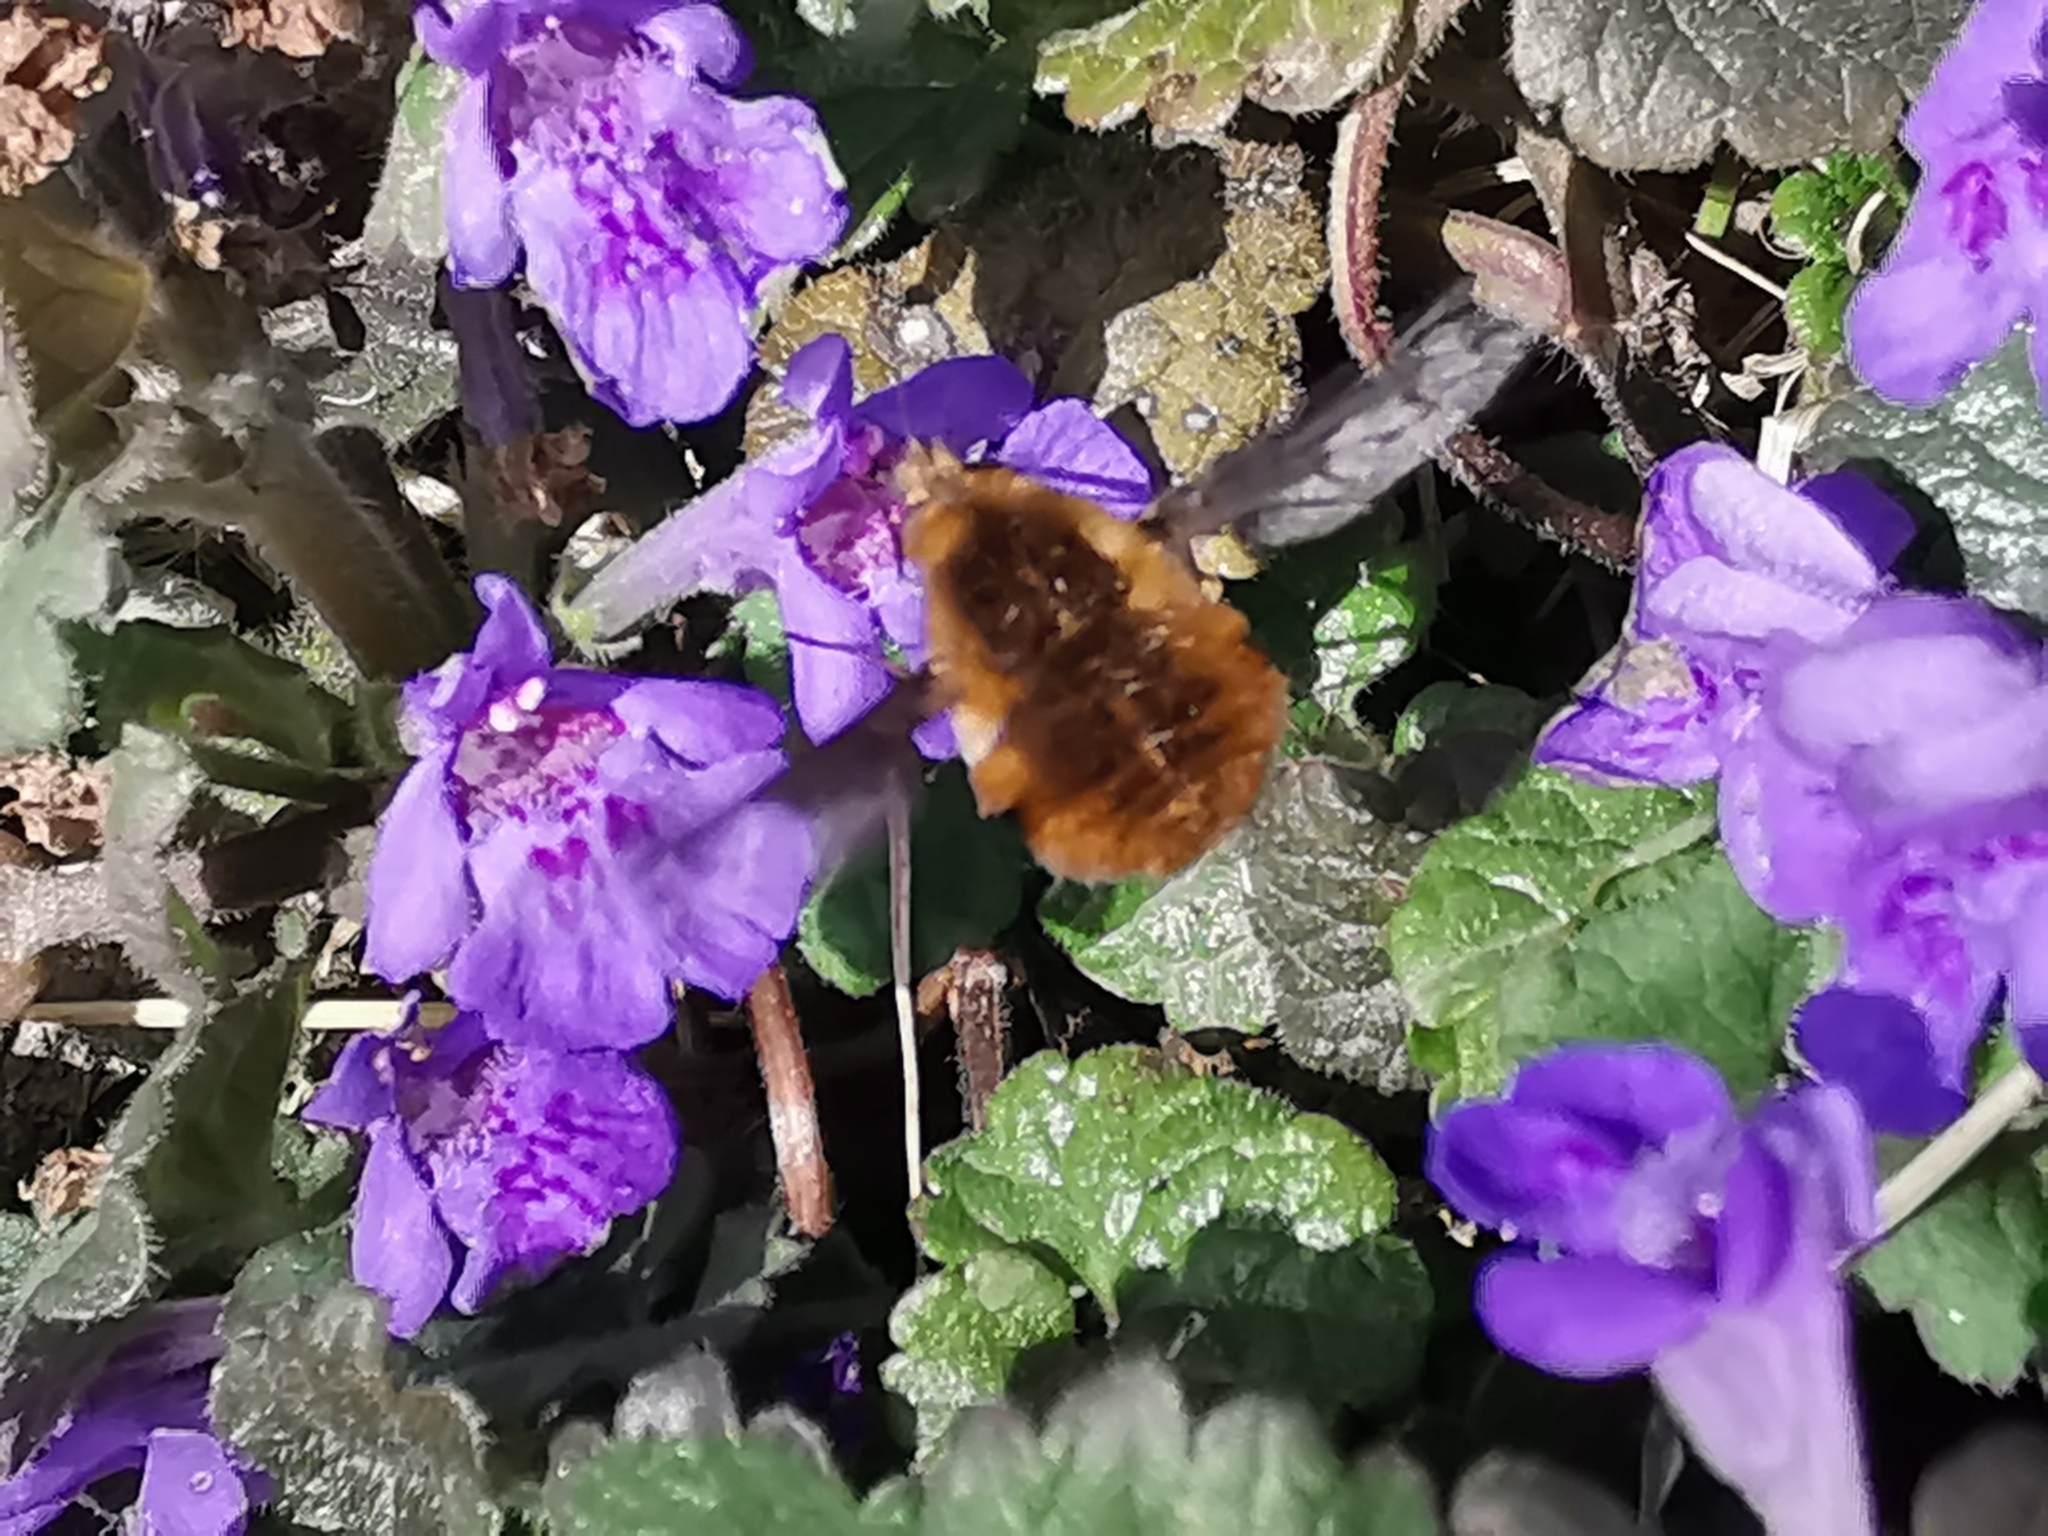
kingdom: Animalia
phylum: Arthropoda
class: Insecta
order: Diptera
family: Bombyliidae
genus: Bombylius
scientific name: Bombylius major
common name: Bee fly
